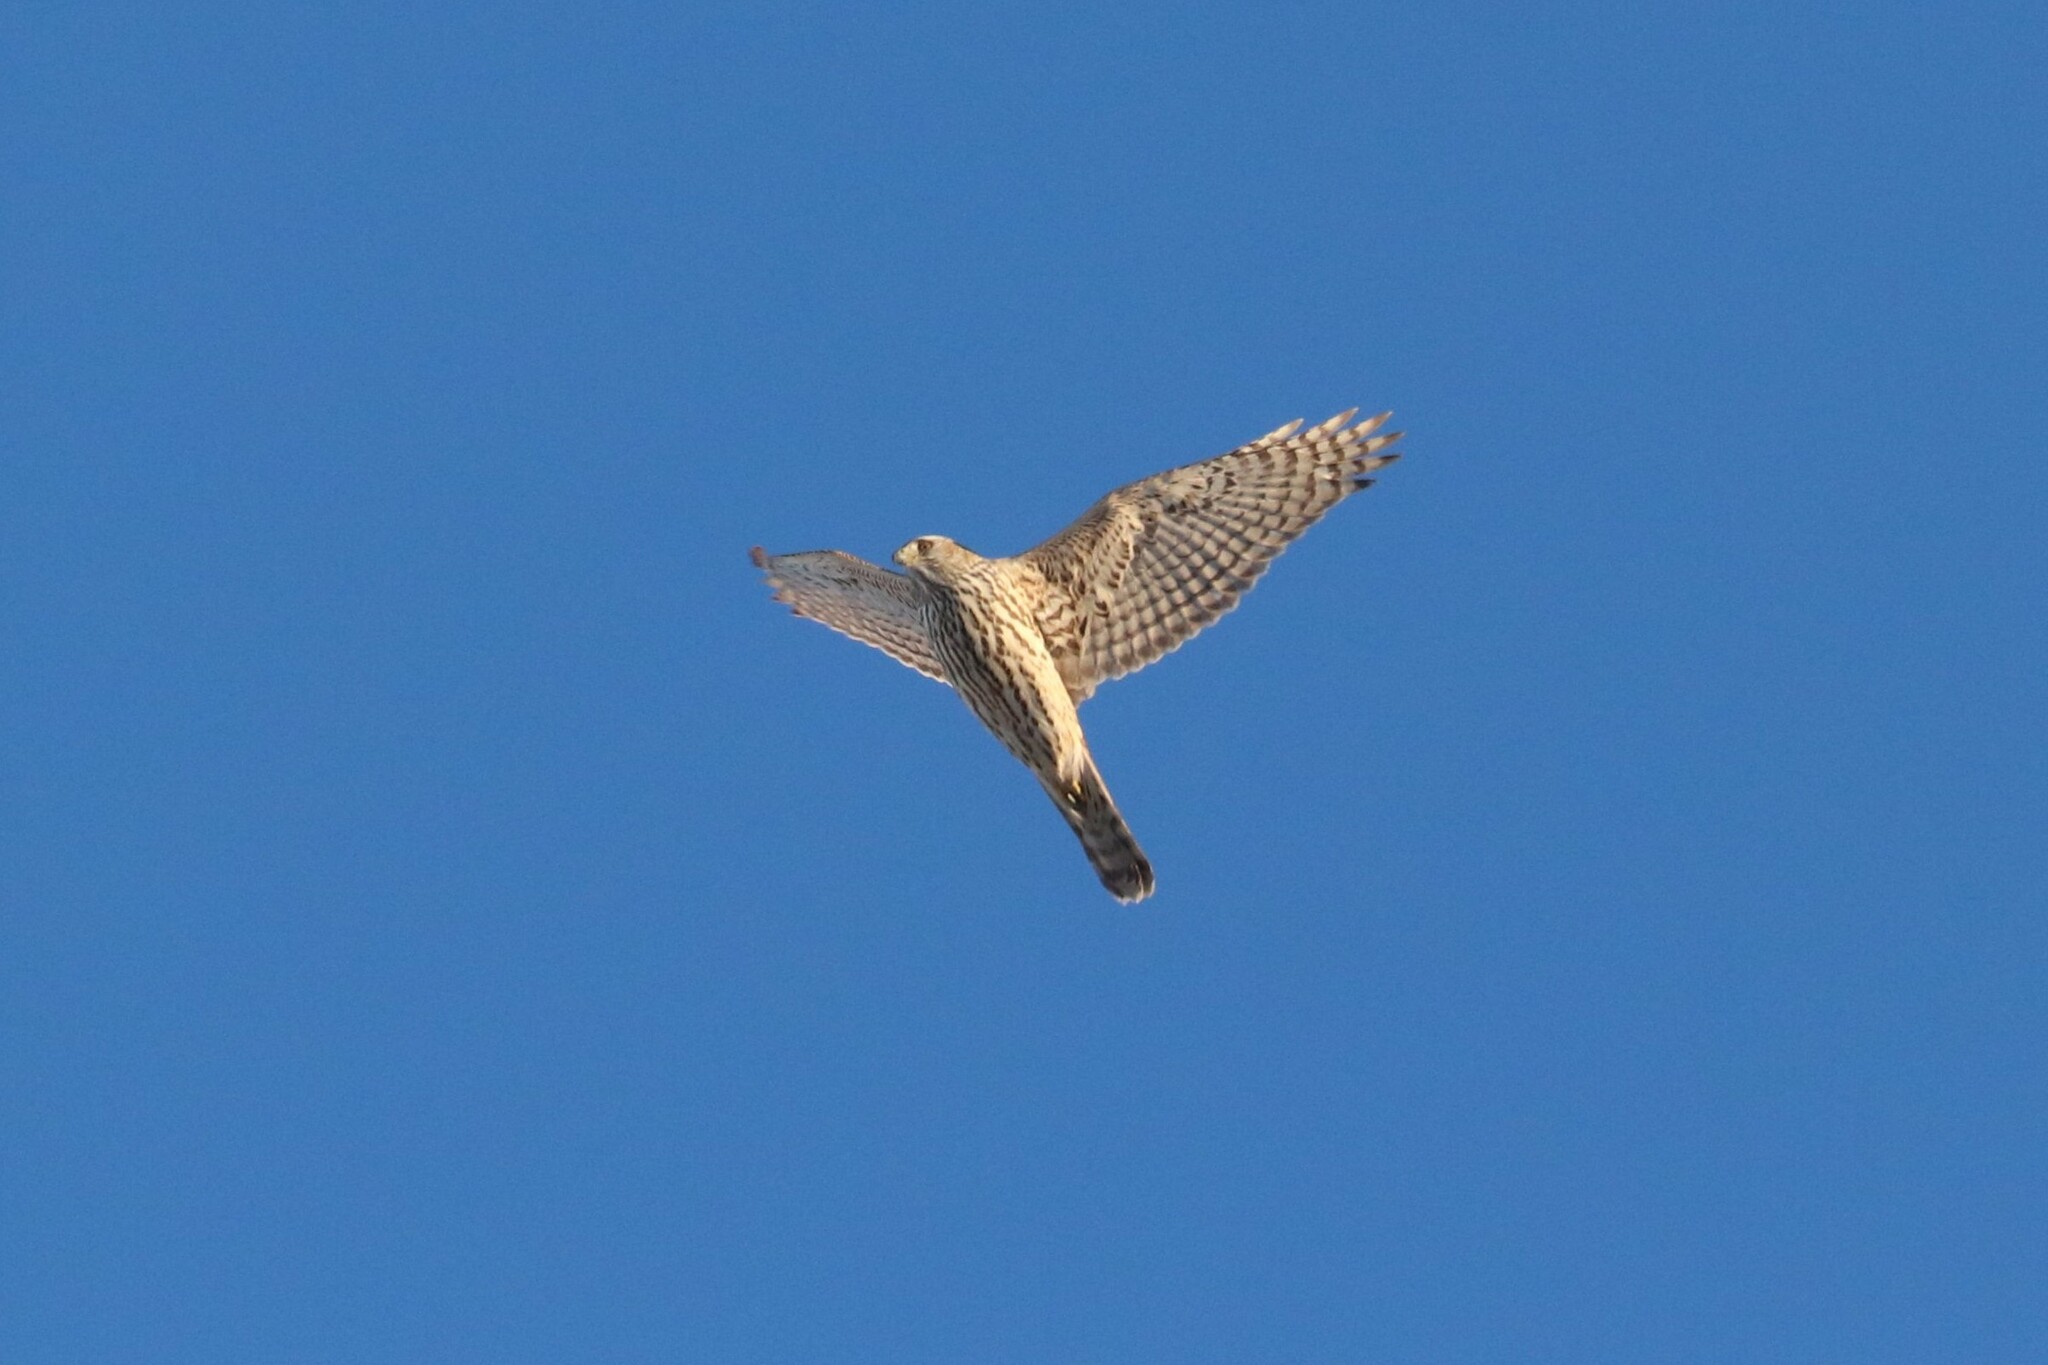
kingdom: Animalia
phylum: Chordata
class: Aves
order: Accipitriformes
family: Accipitridae
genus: Accipiter
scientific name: Accipiter gentilis
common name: Northern goshawk
